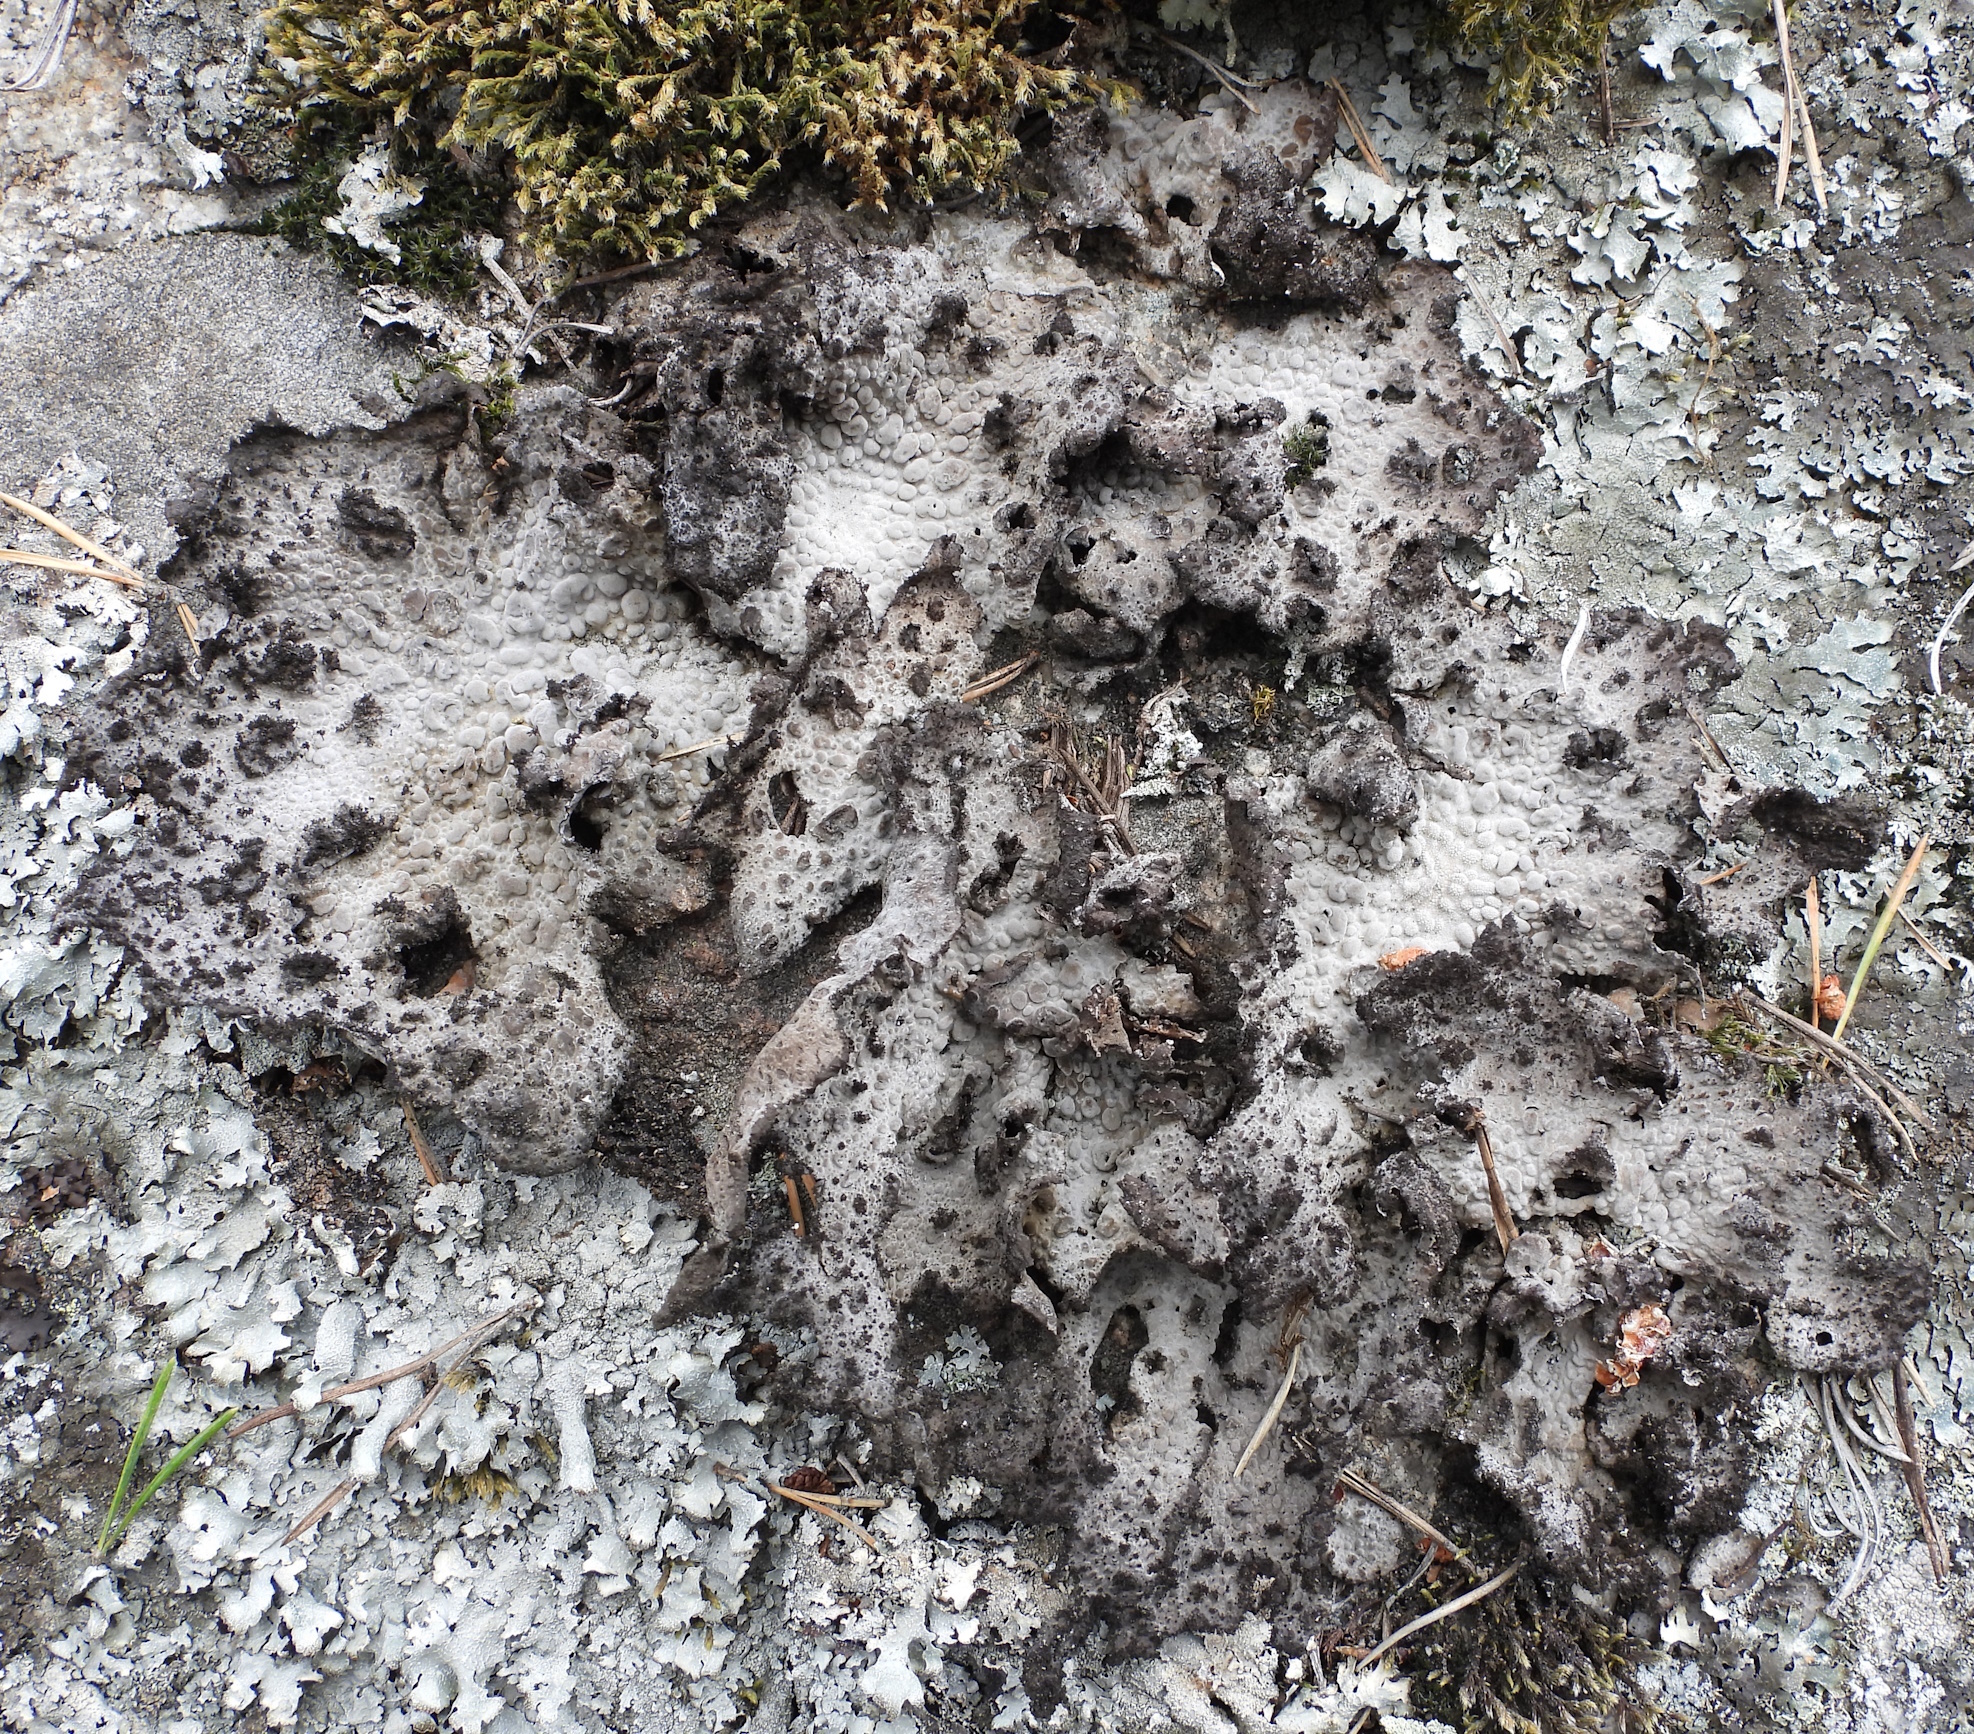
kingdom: Fungi
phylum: Ascomycota
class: Lecanoromycetes
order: Umbilicariales
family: Umbilicariaceae
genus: Lasallia
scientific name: Lasallia pustulata
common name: Blistered toadskin lichen
